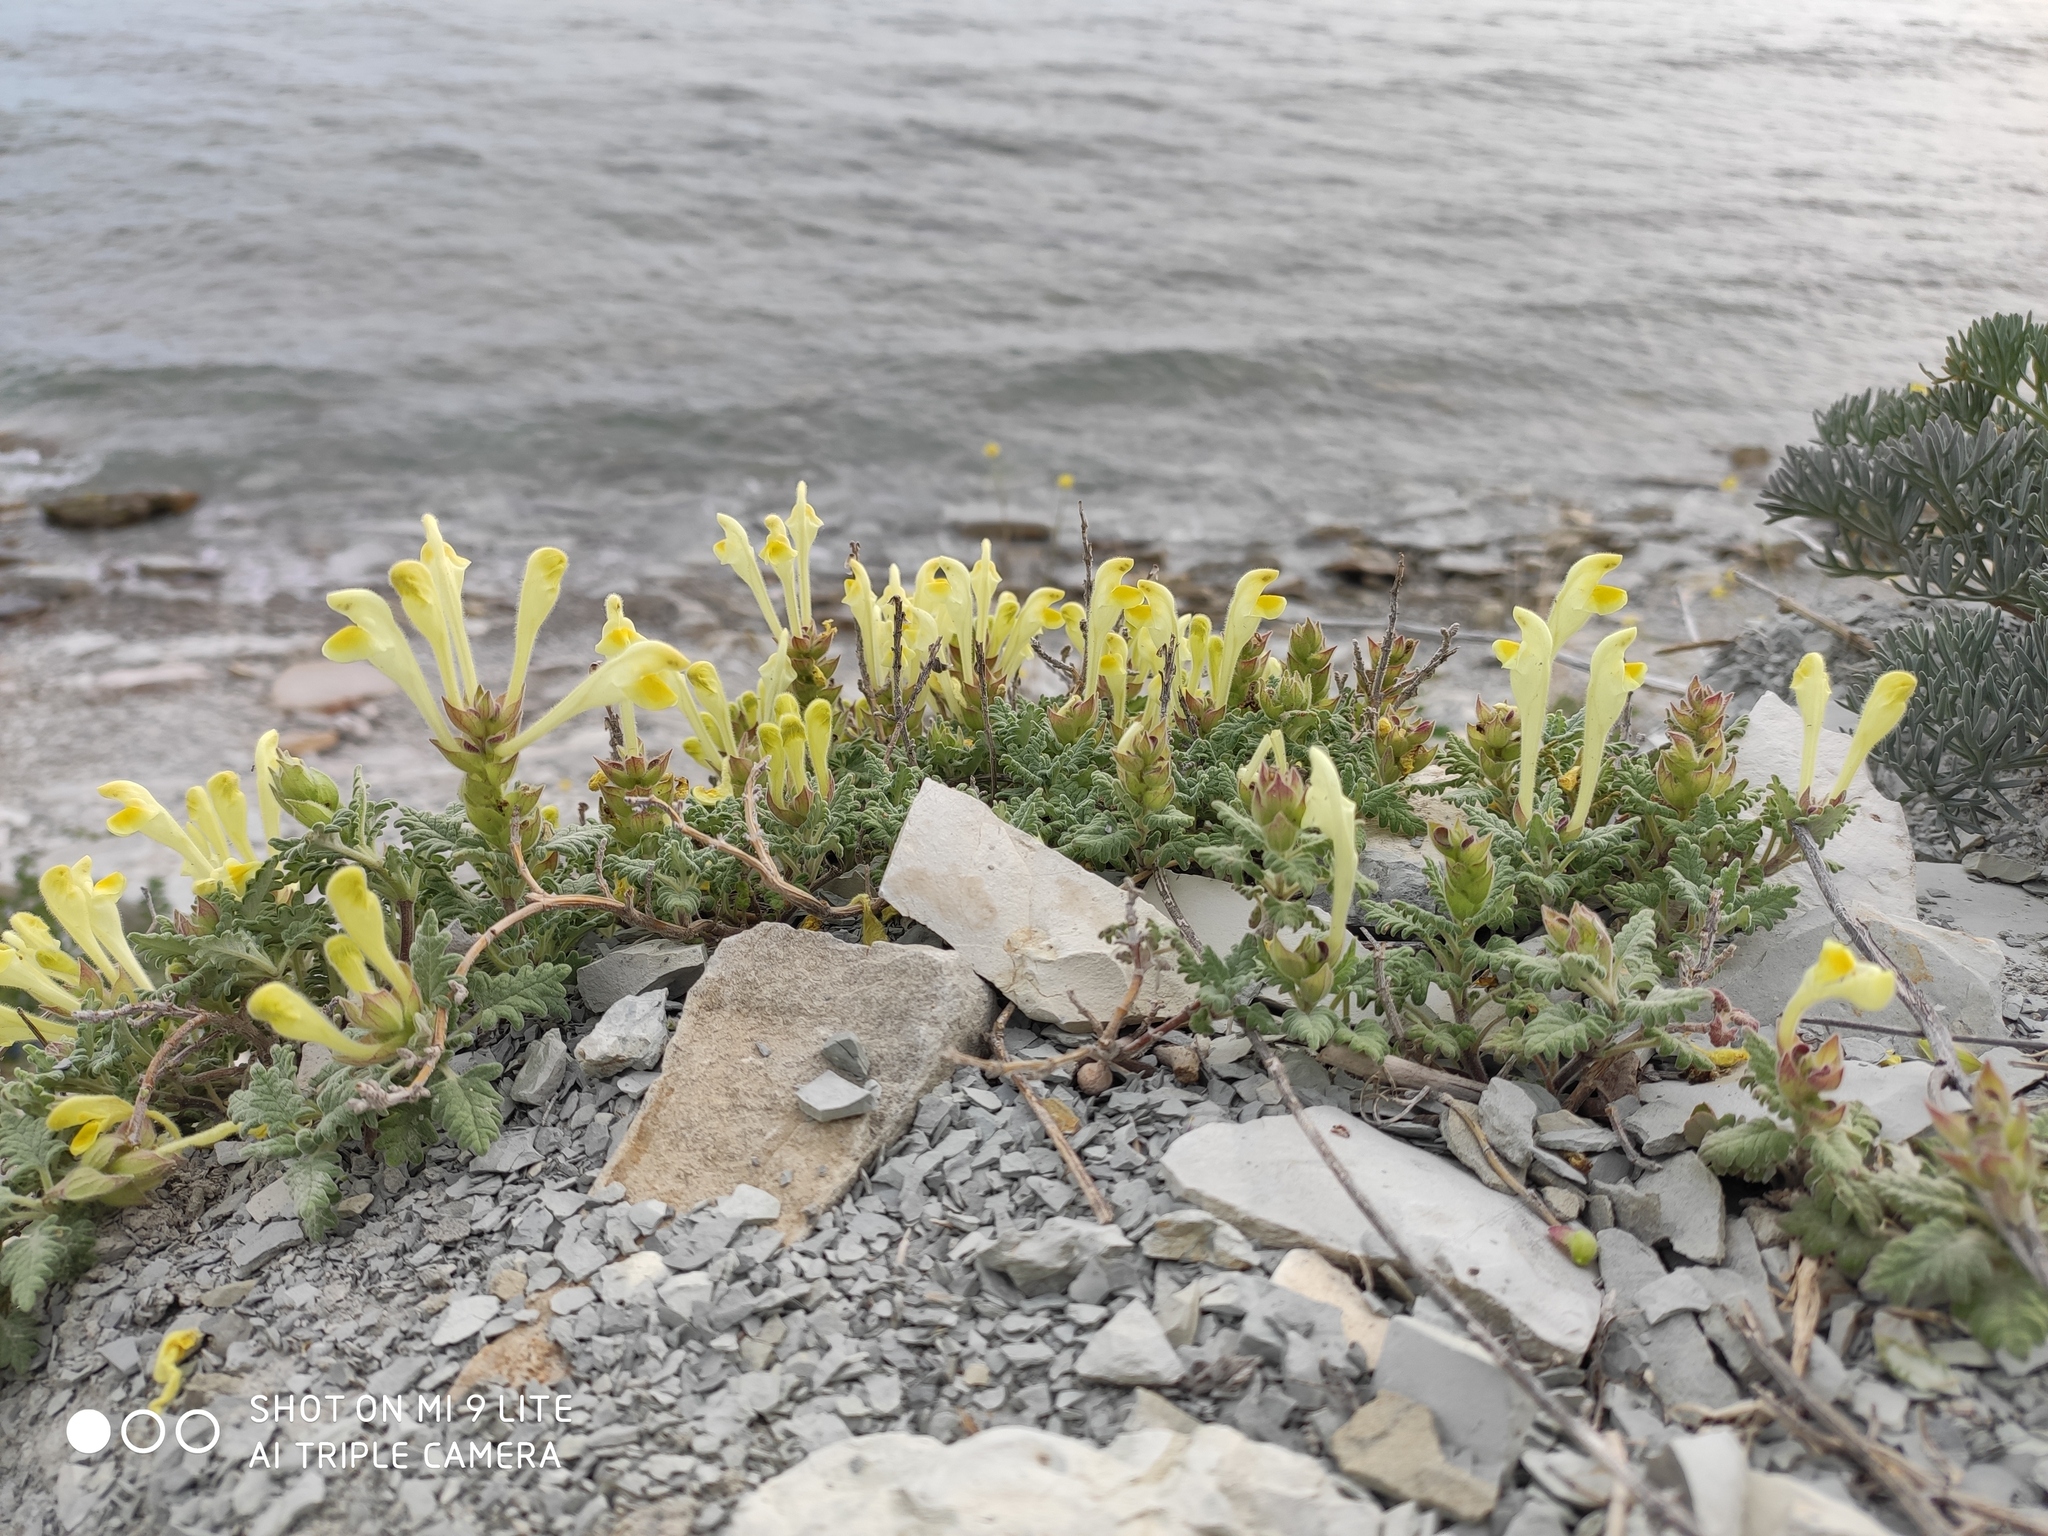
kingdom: Plantae
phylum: Tracheophyta
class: Magnoliopsida
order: Lamiales
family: Lamiaceae
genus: Scutellaria
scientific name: Scutellaria orientalis
